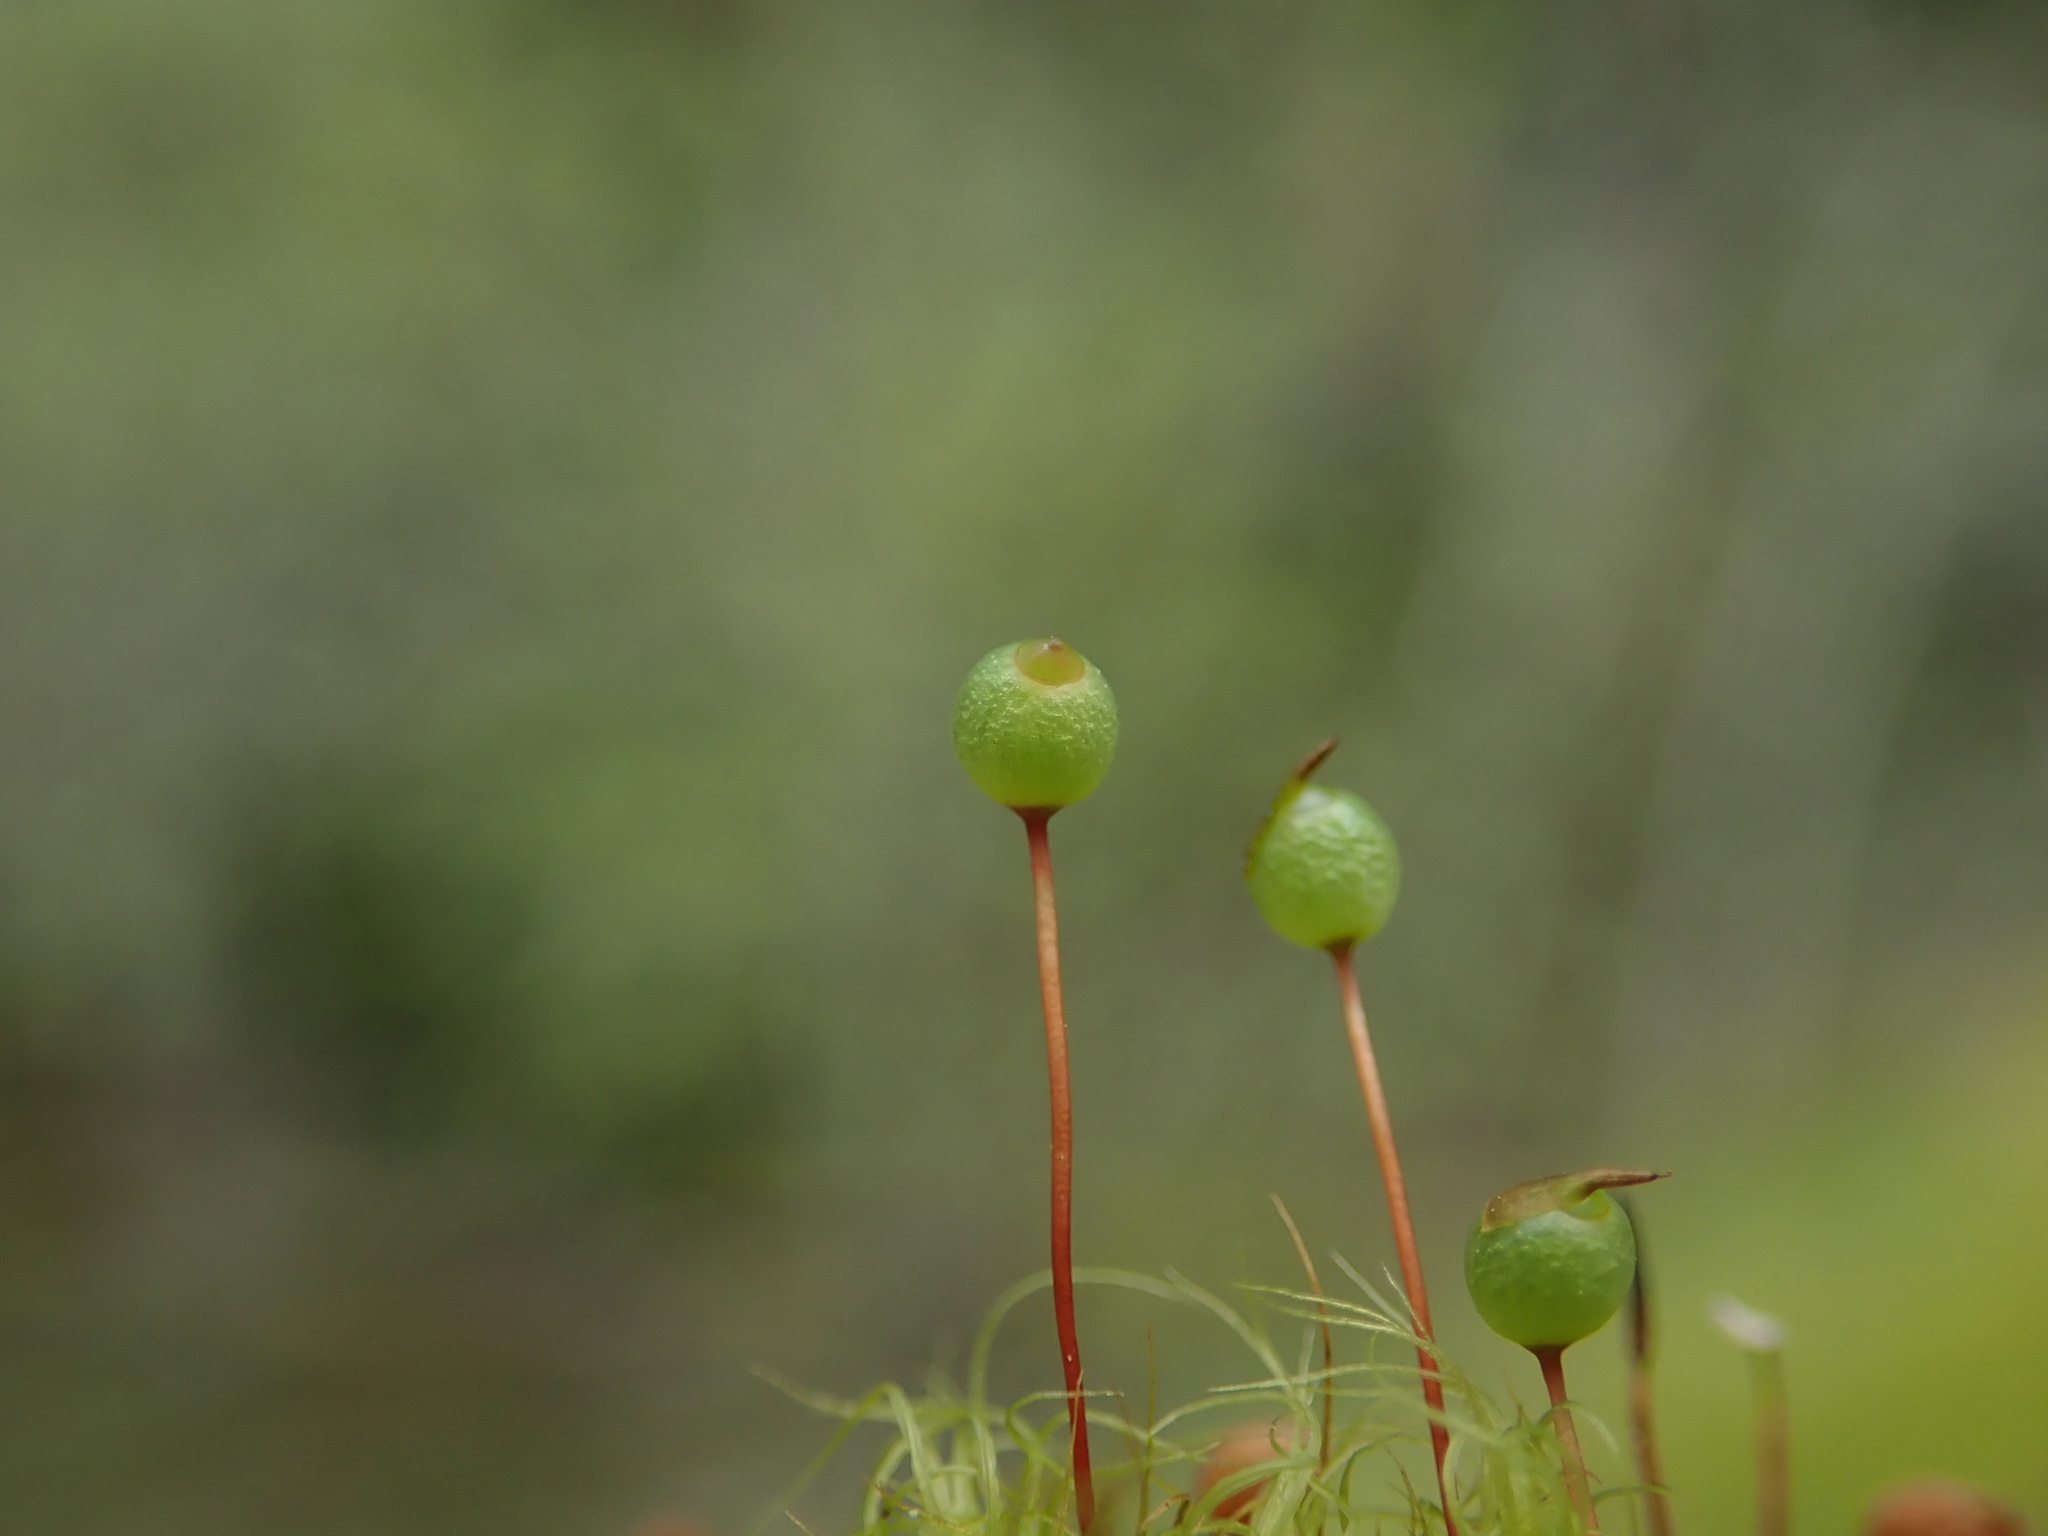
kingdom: Plantae
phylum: Bryophyta
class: Bryopsida
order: Bartramiales
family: Bartramiaceae
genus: Bartramia
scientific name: Bartramia ithyphylla
